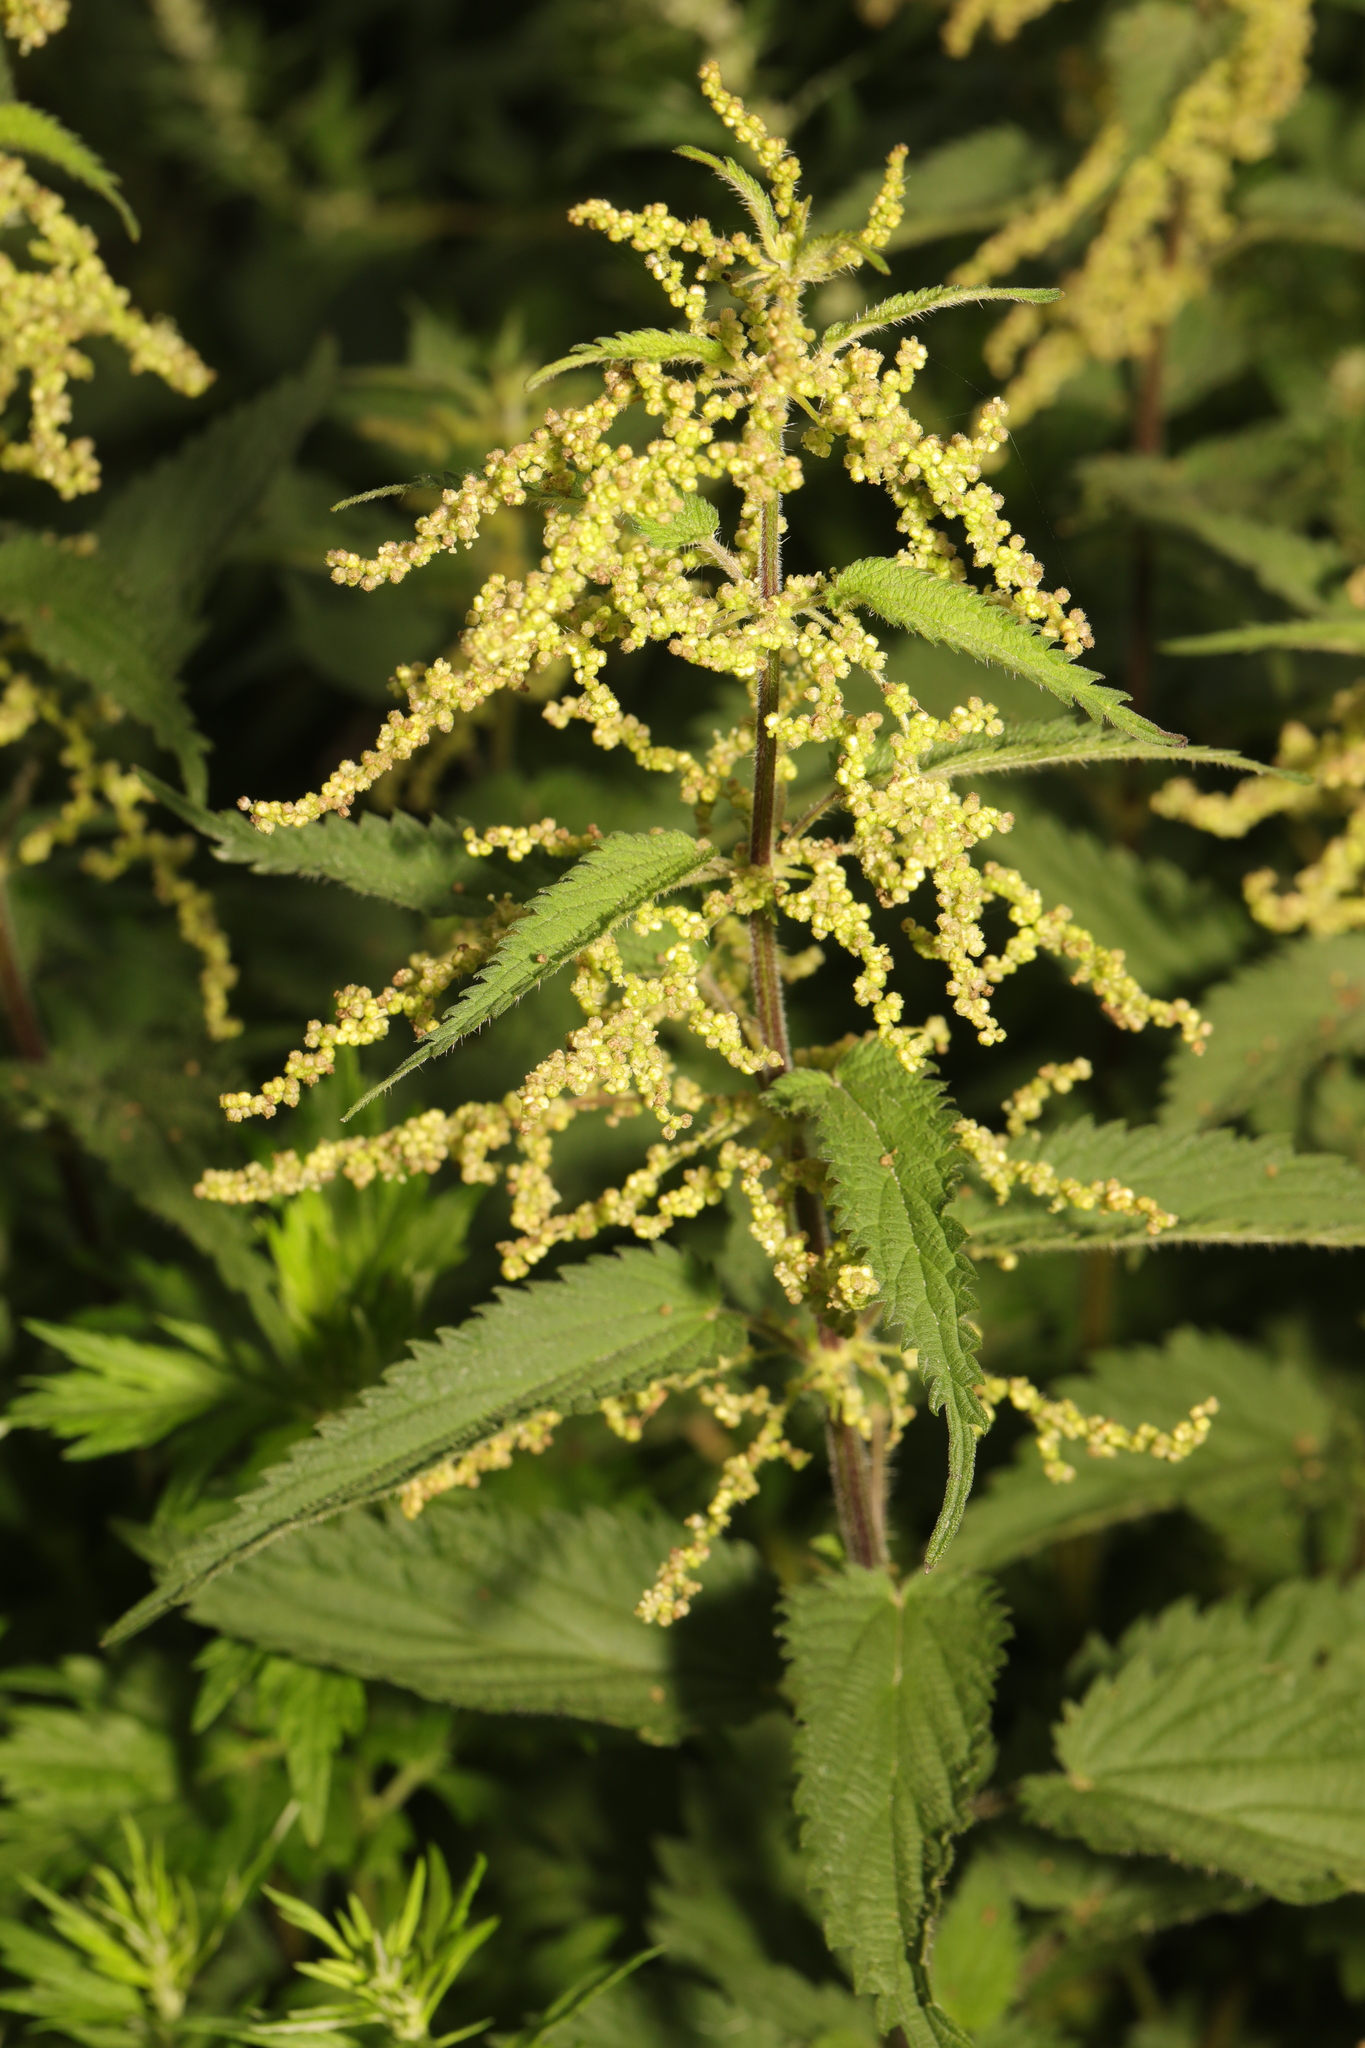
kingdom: Plantae
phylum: Tracheophyta
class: Magnoliopsida
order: Rosales
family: Urticaceae
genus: Urtica
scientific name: Urtica dioica
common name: Common nettle
